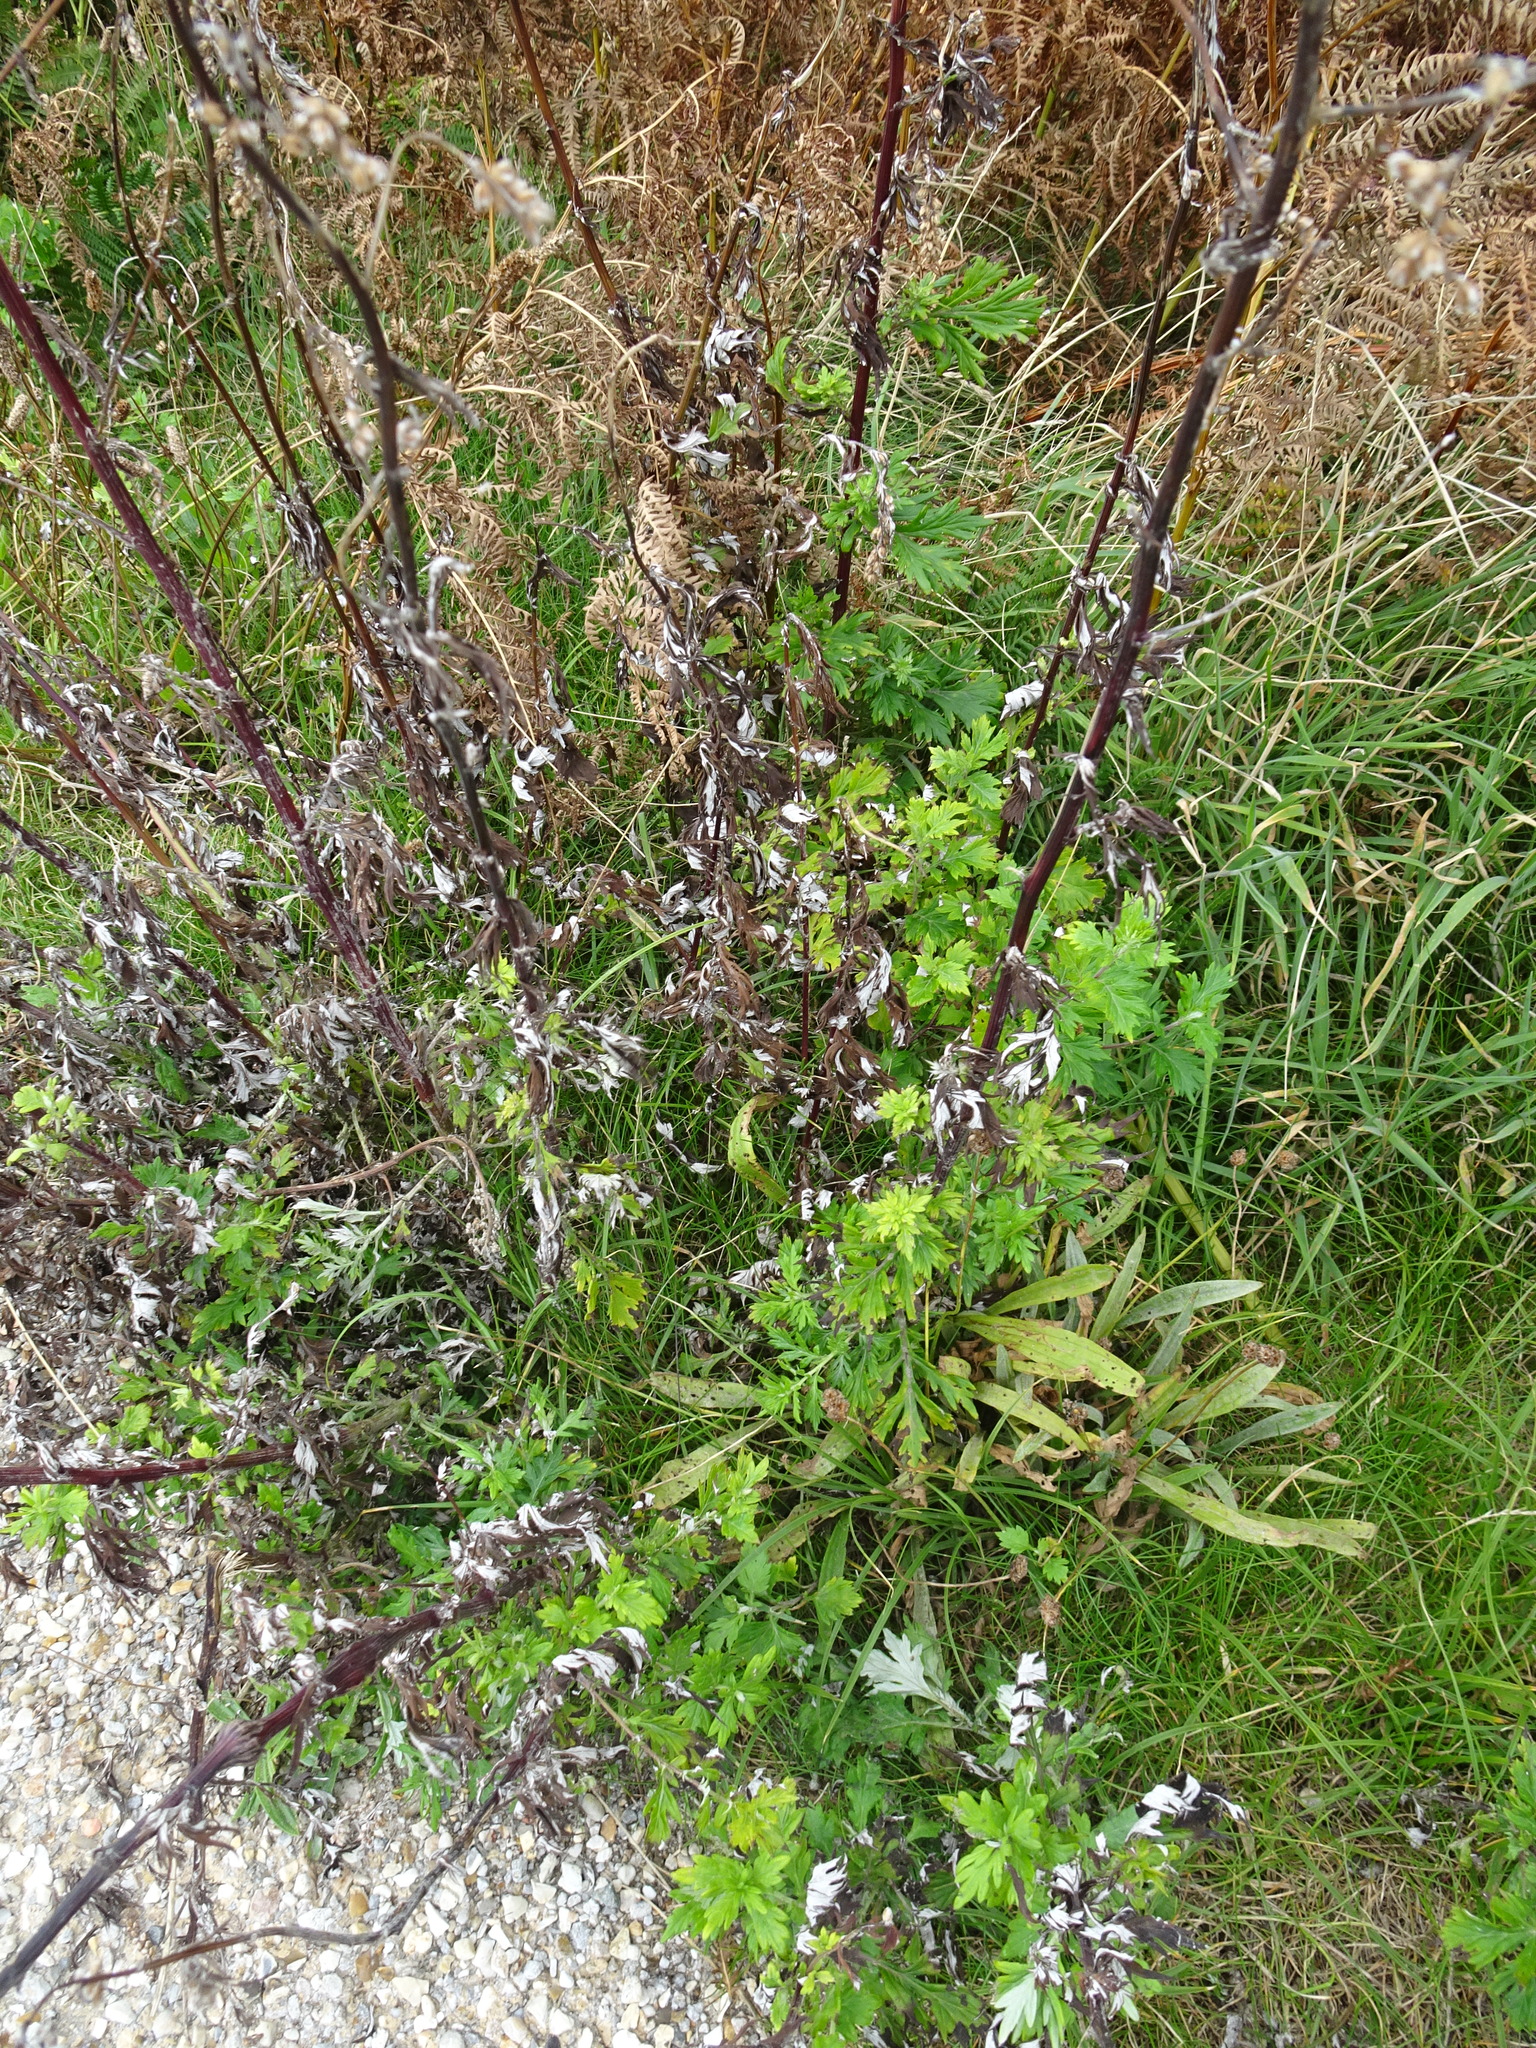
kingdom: Plantae
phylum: Tracheophyta
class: Magnoliopsida
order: Asterales
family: Asteraceae
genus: Artemisia
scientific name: Artemisia vulgaris
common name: Mugwort
